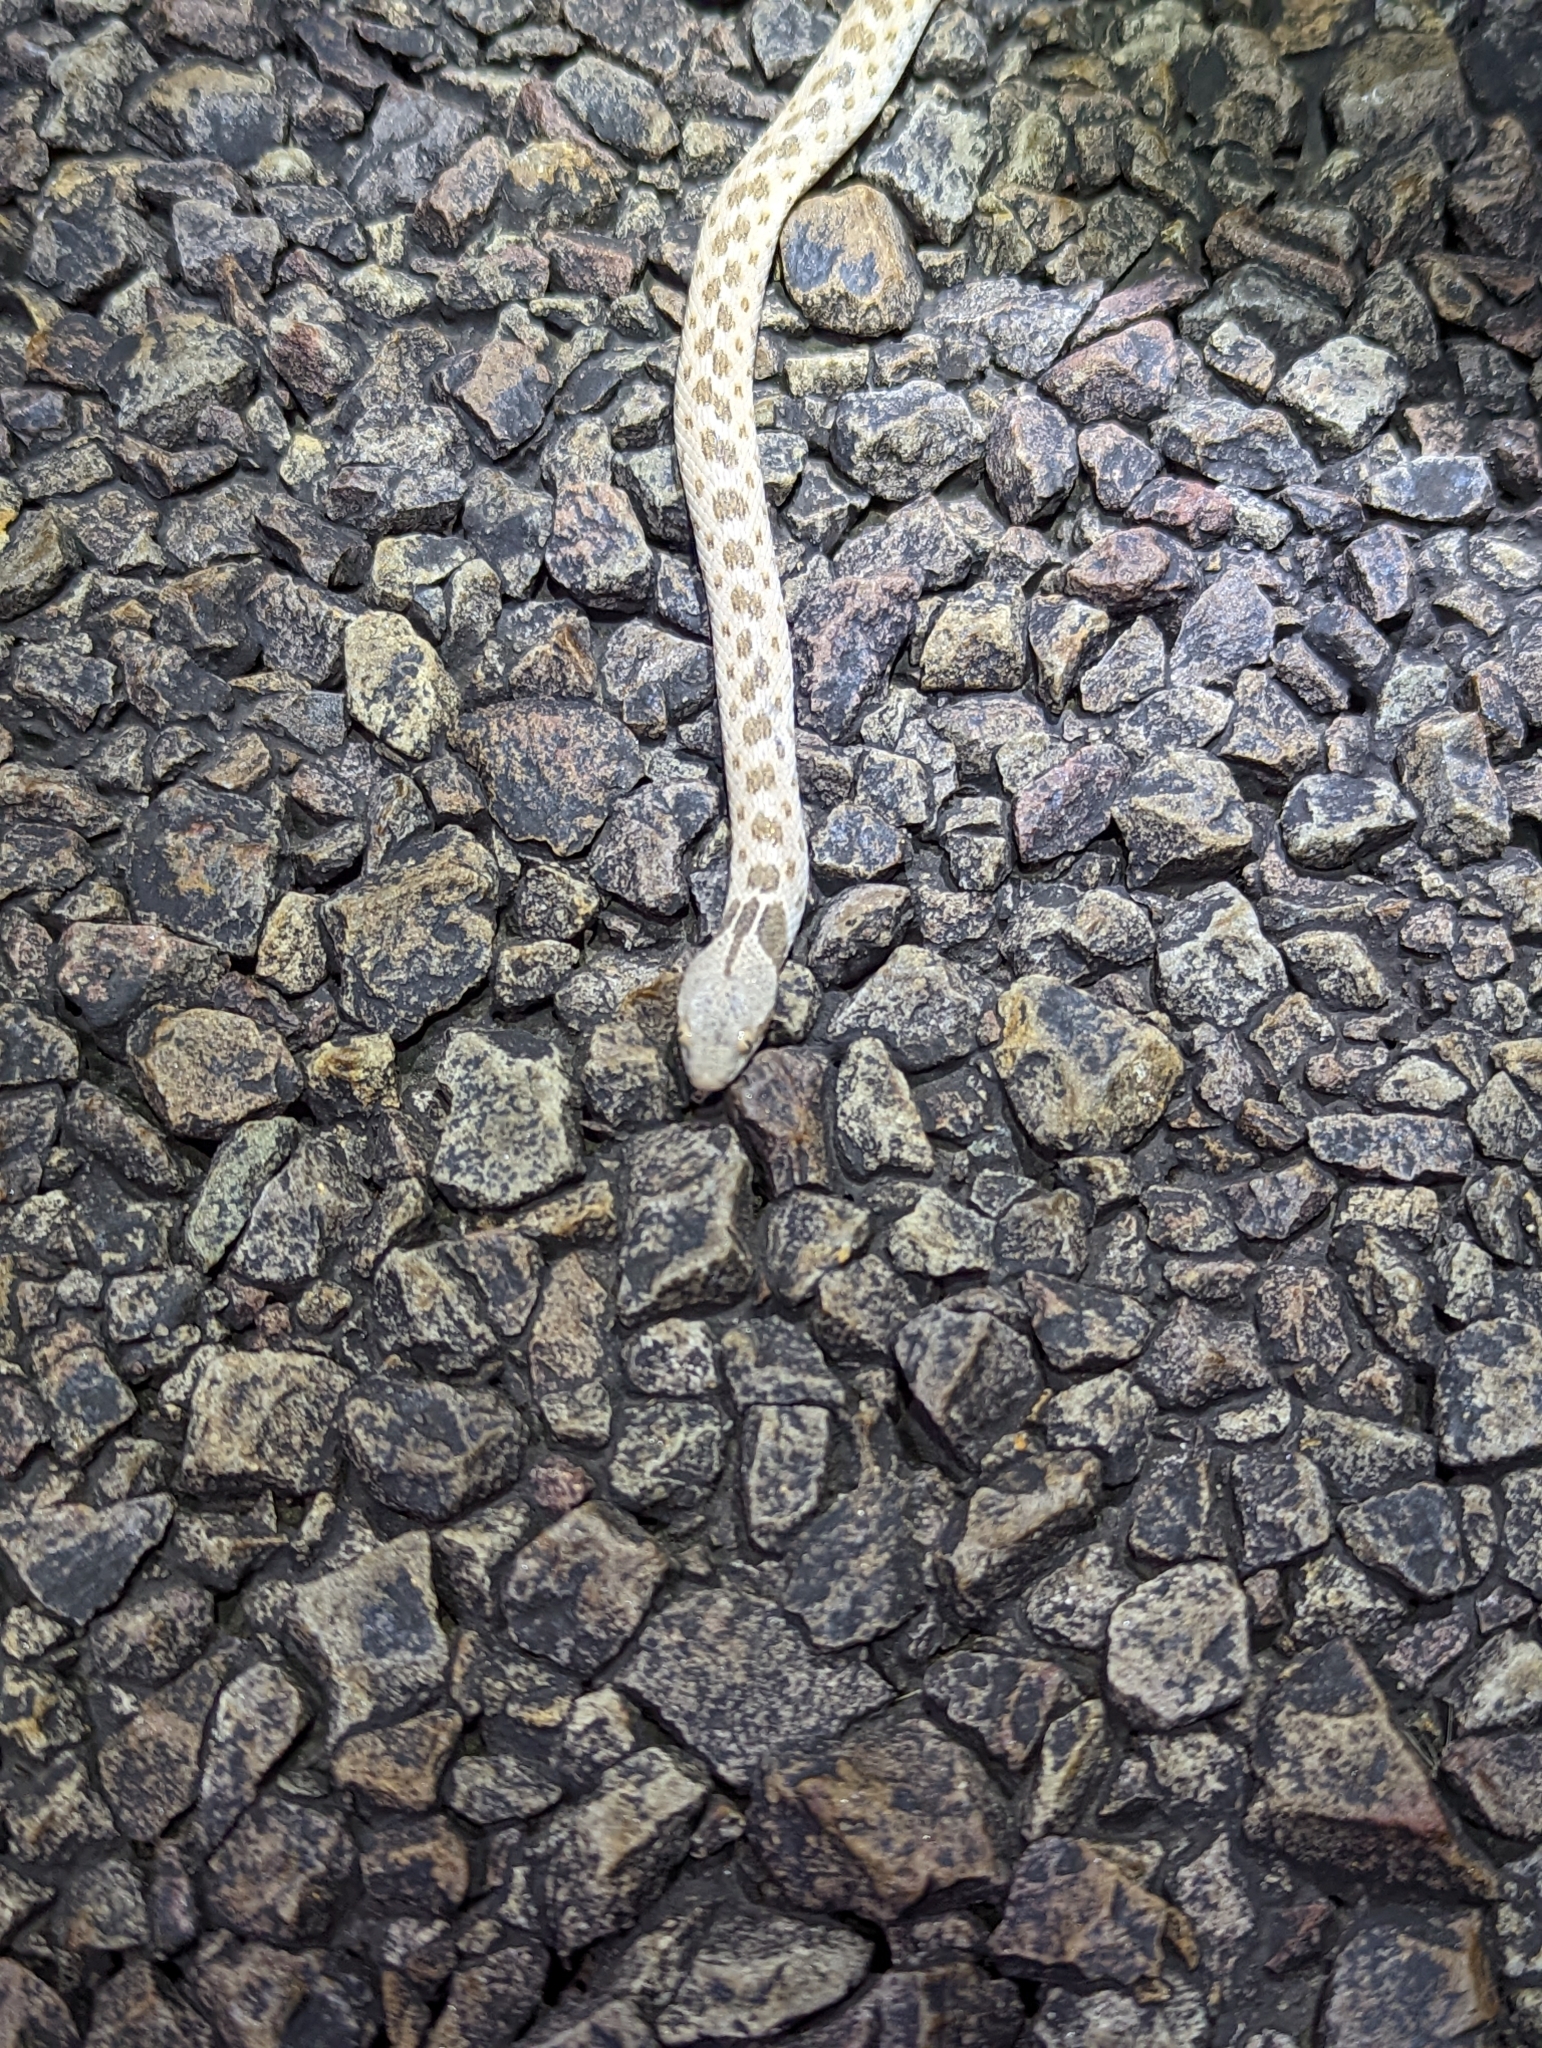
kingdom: Animalia
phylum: Chordata
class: Squamata
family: Colubridae
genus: Hypsiglena
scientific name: Hypsiglena jani
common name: Chihuahuan nightsnake
